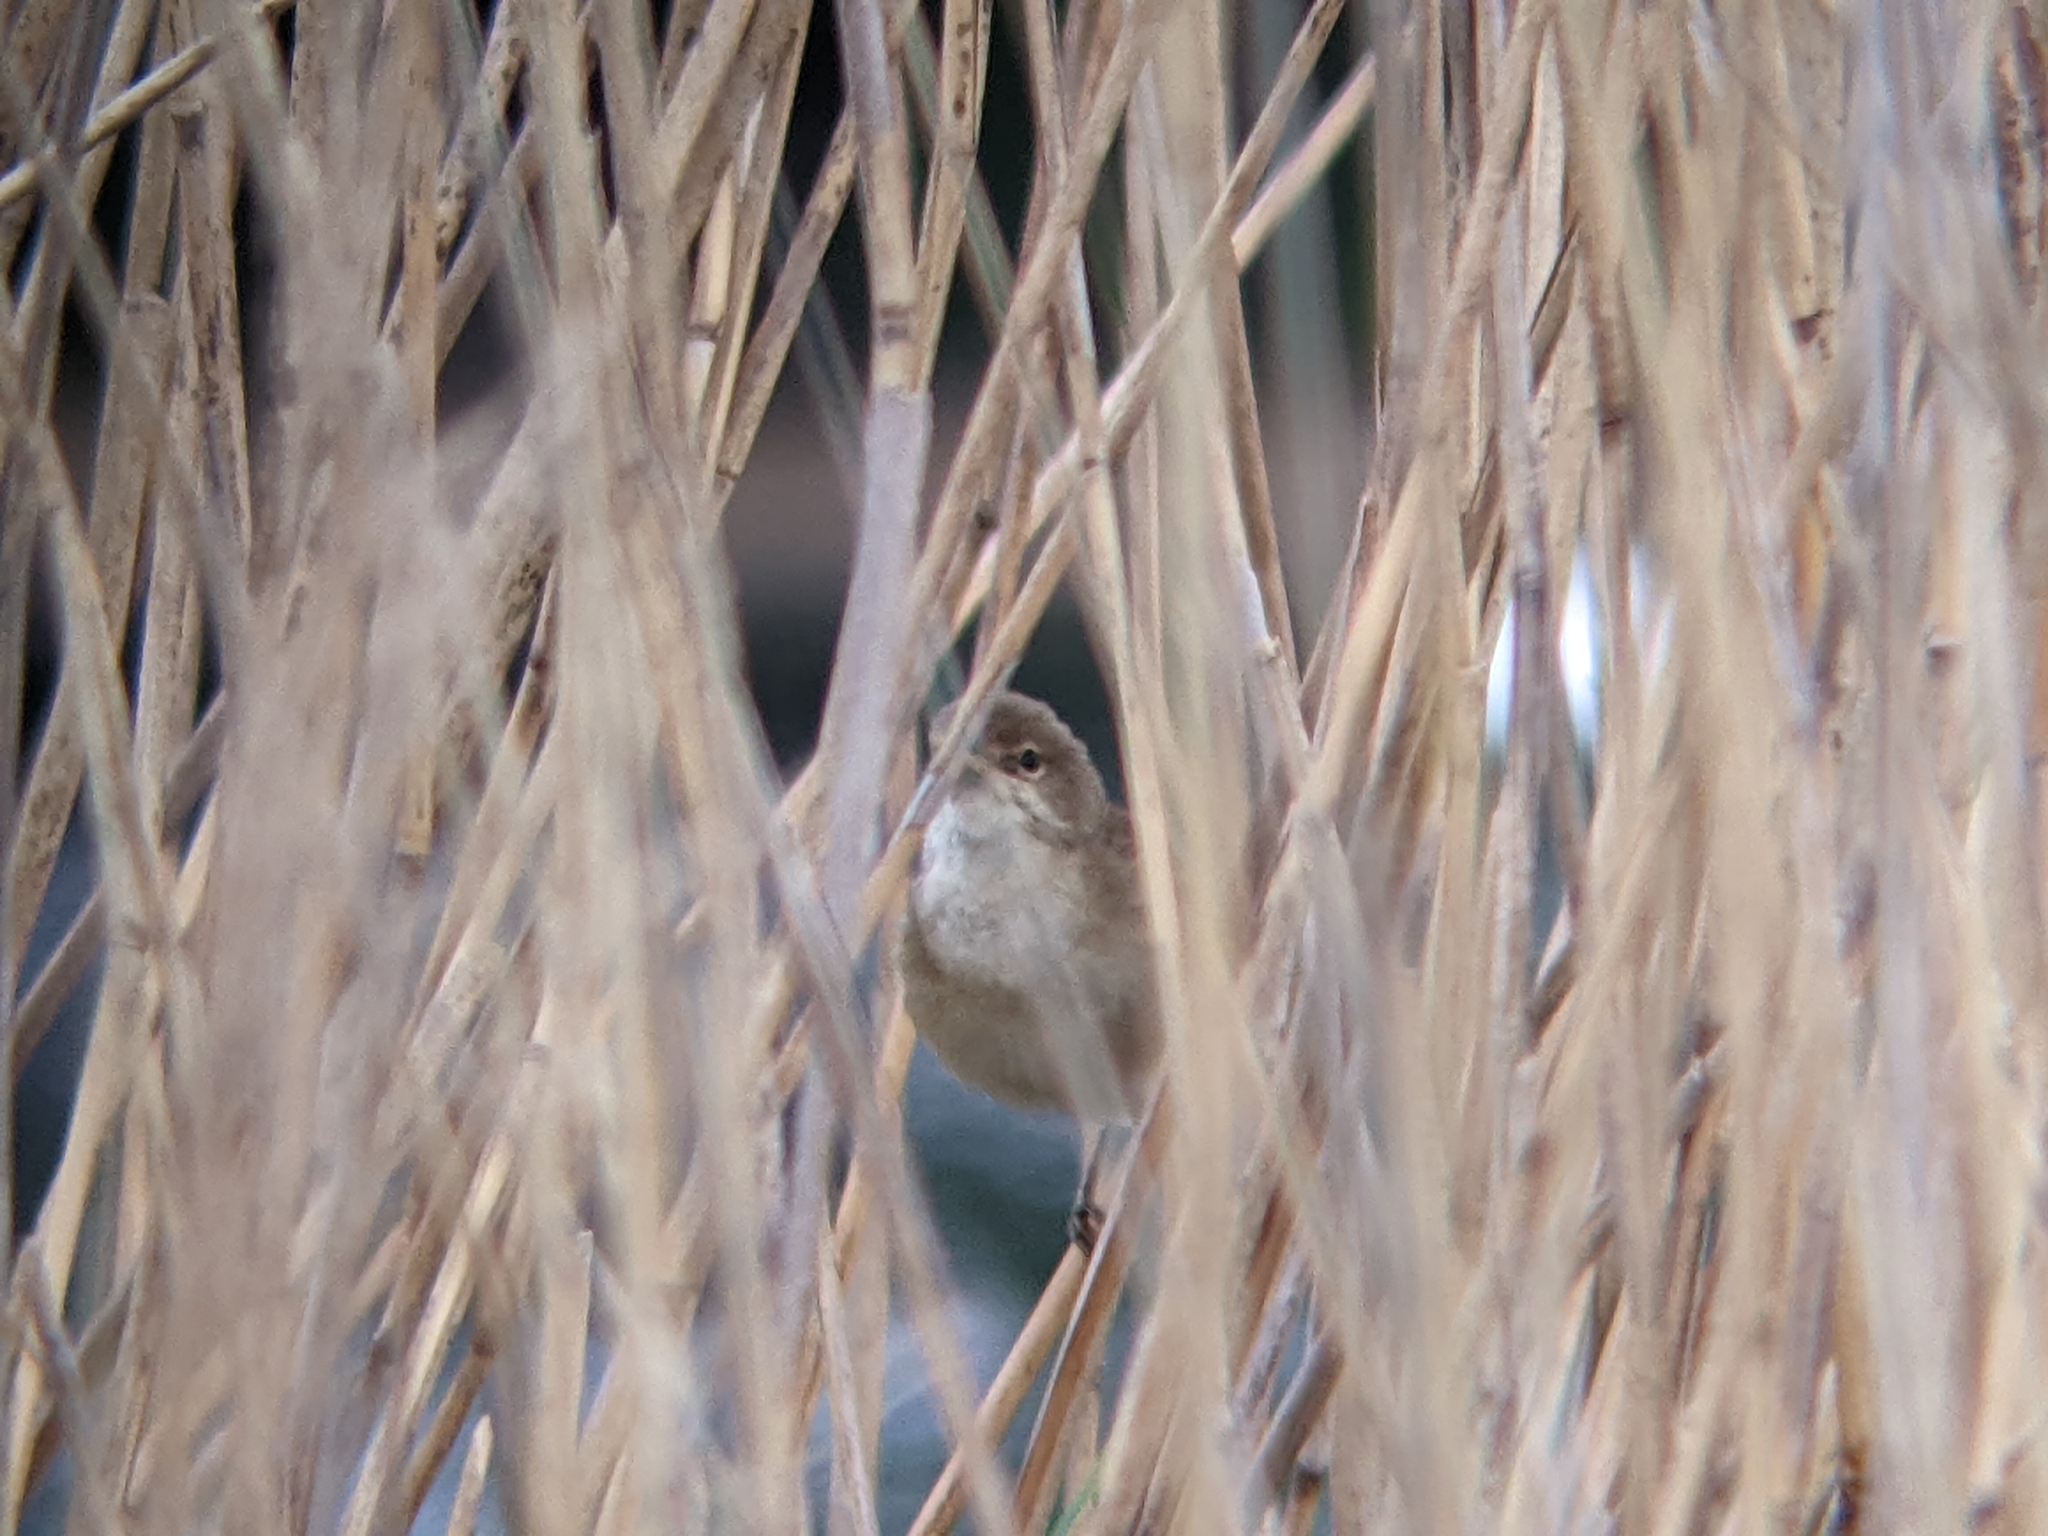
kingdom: Animalia
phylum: Chordata
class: Aves
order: Passeriformes
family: Acrocephalidae
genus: Acrocephalus
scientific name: Acrocephalus scirpaceus
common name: Eurasian reed warbler
